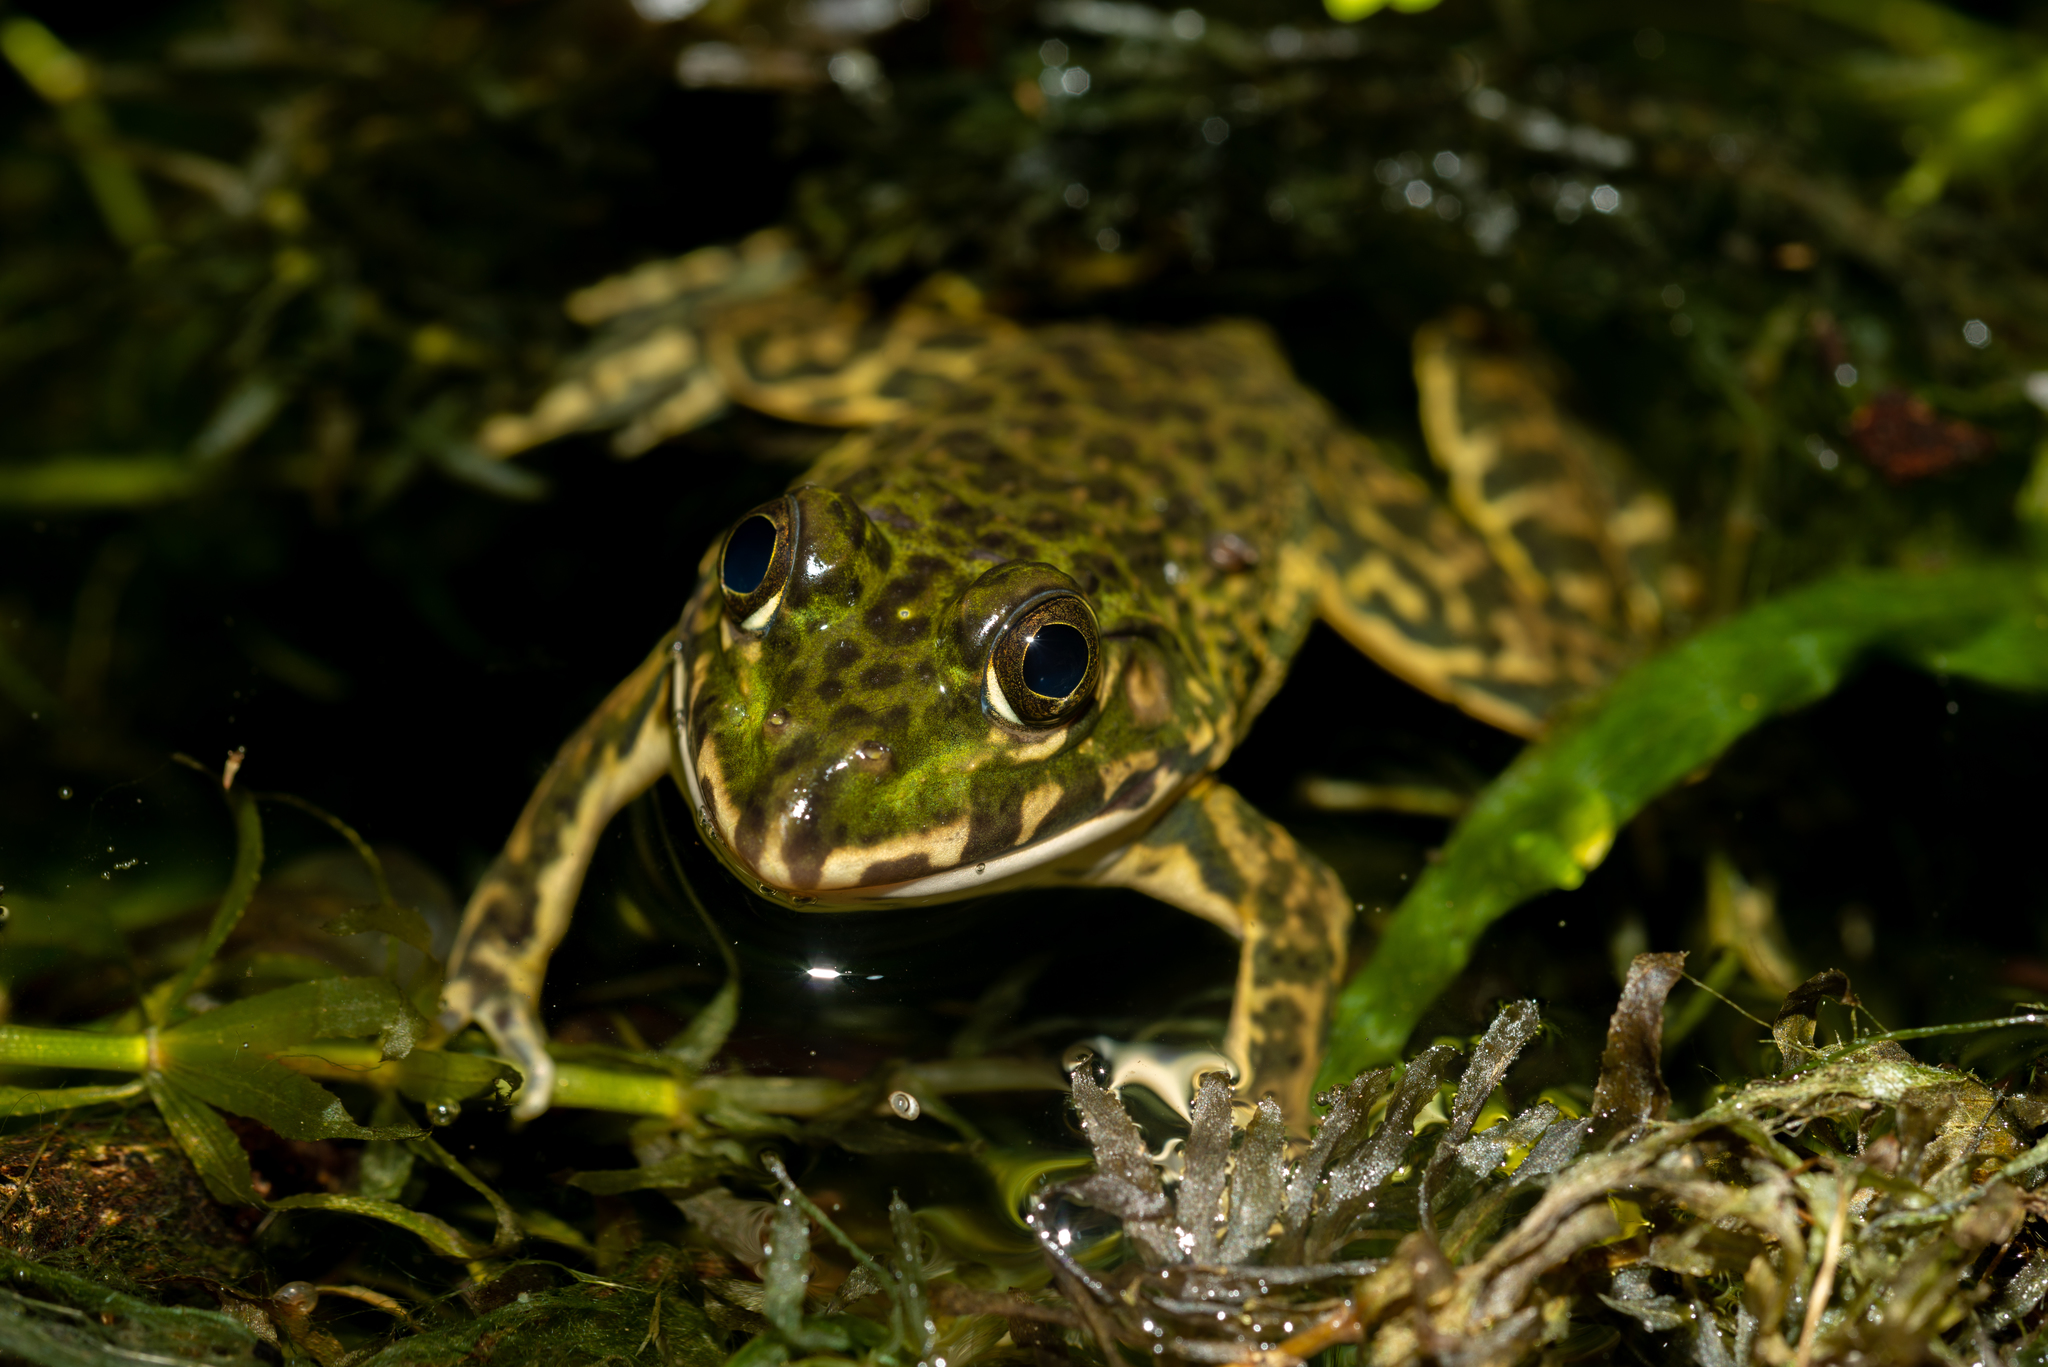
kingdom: Animalia
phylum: Chordata
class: Amphibia
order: Anura
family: Dicroglossidae
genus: Hoplobatrachus
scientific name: Hoplobatrachus rugulosus
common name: Chinese edible frog
